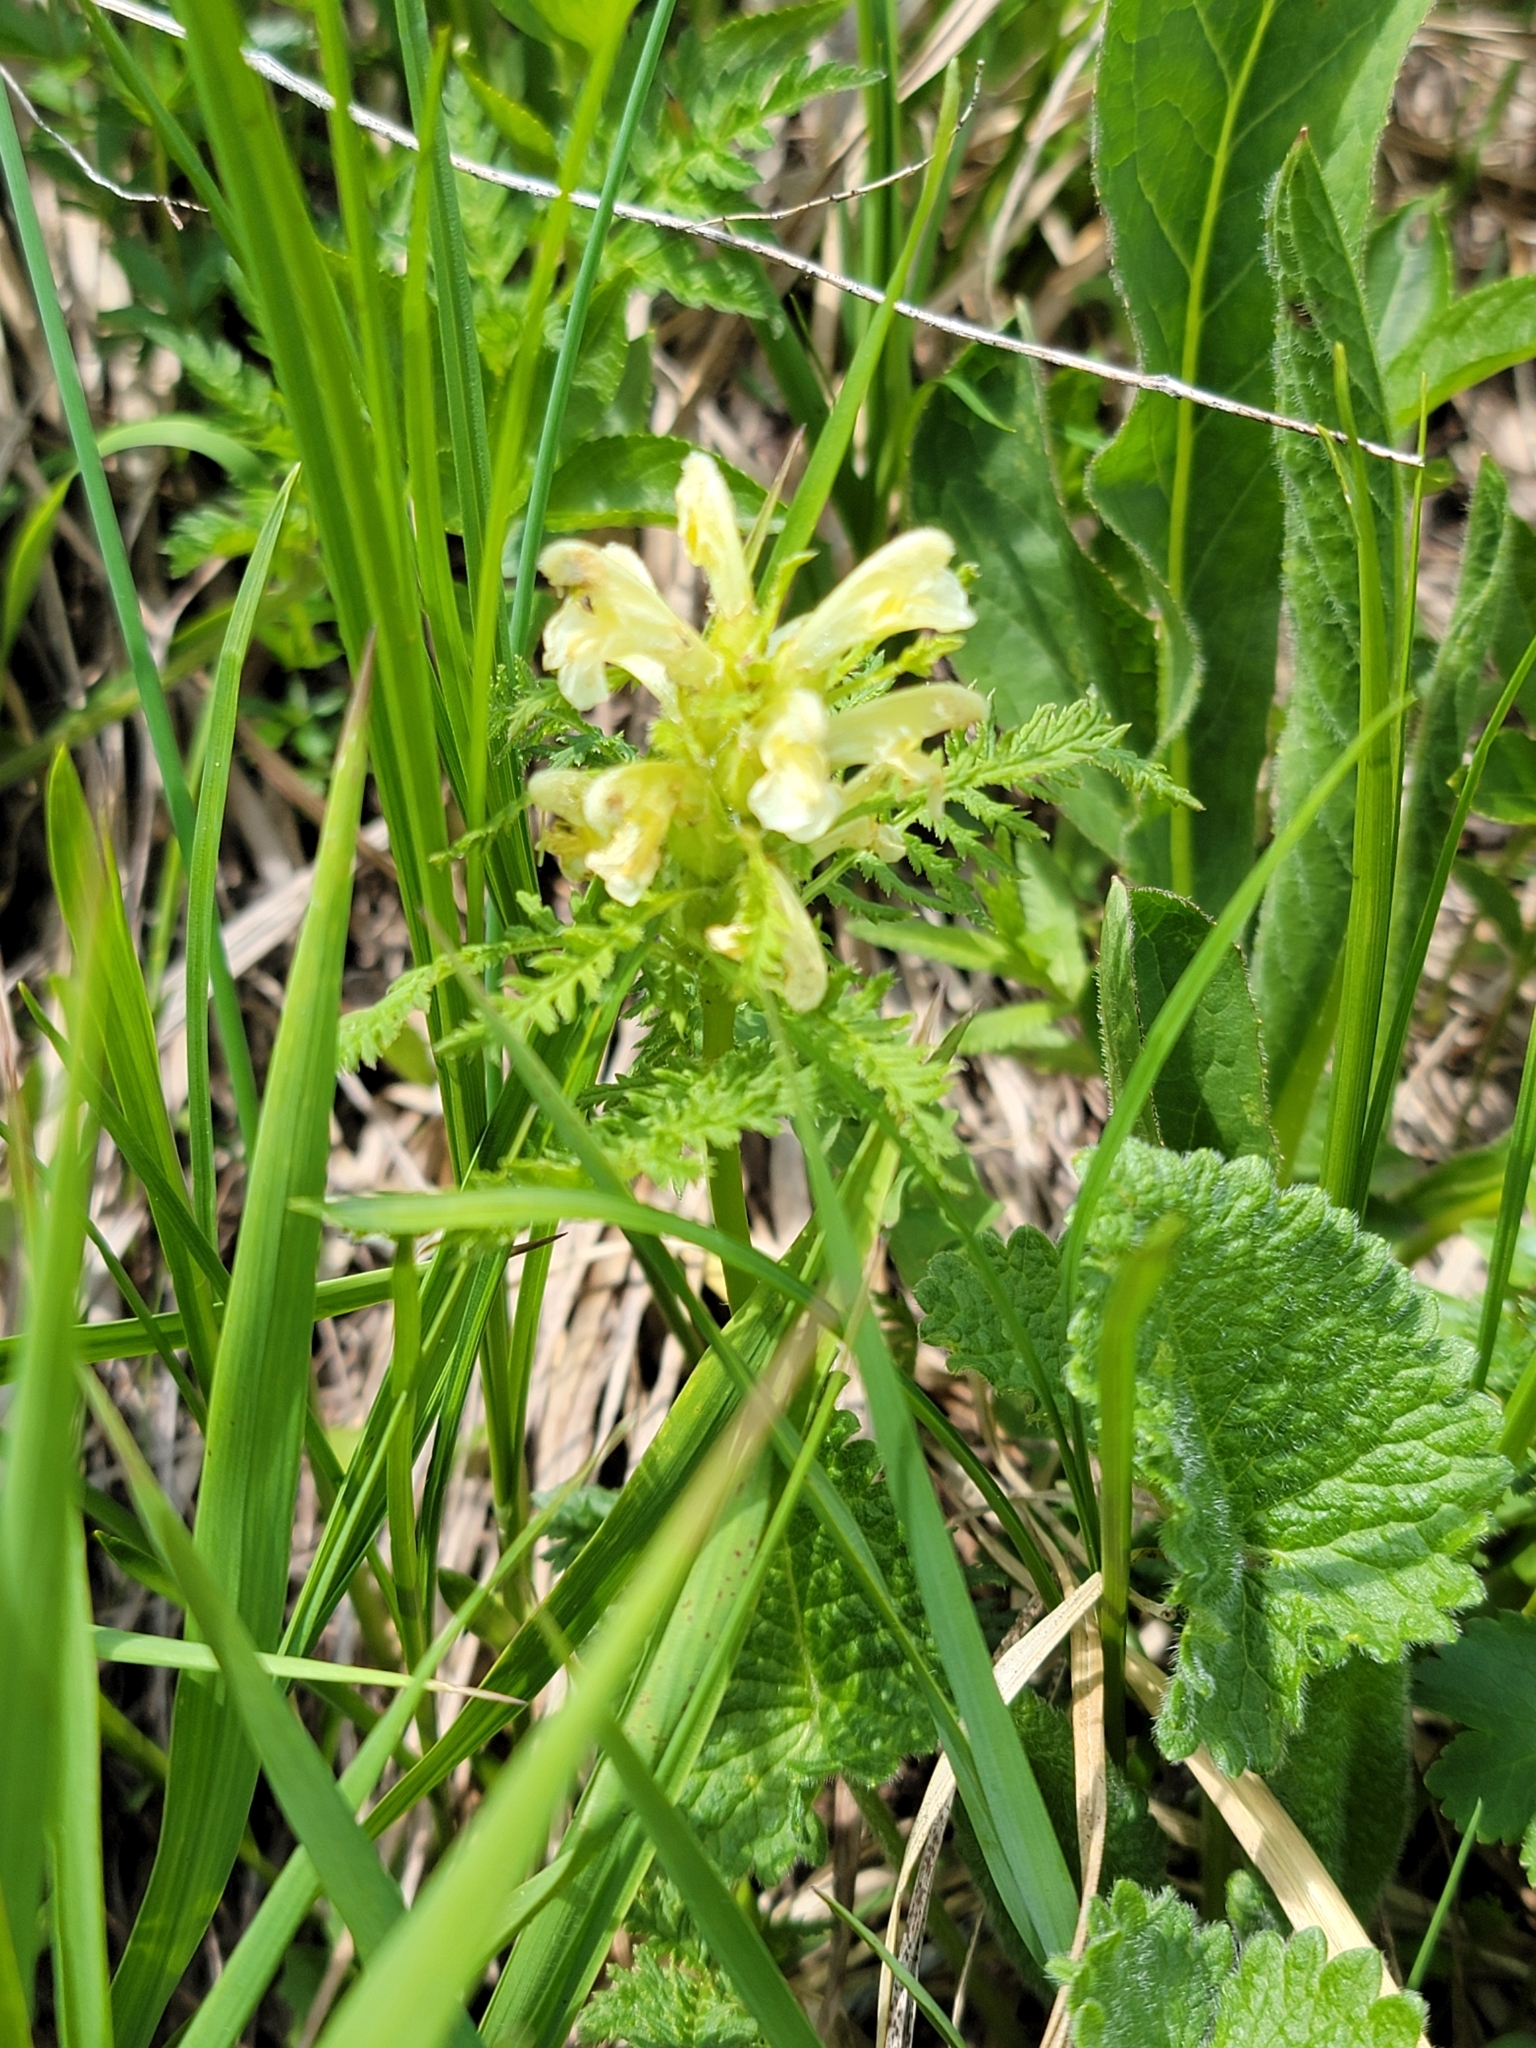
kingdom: Plantae
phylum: Tracheophyta
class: Magnoliopsida
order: Lamiales
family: Orobanchaceae
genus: Pedicularis
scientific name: Pedicularis foliosa
